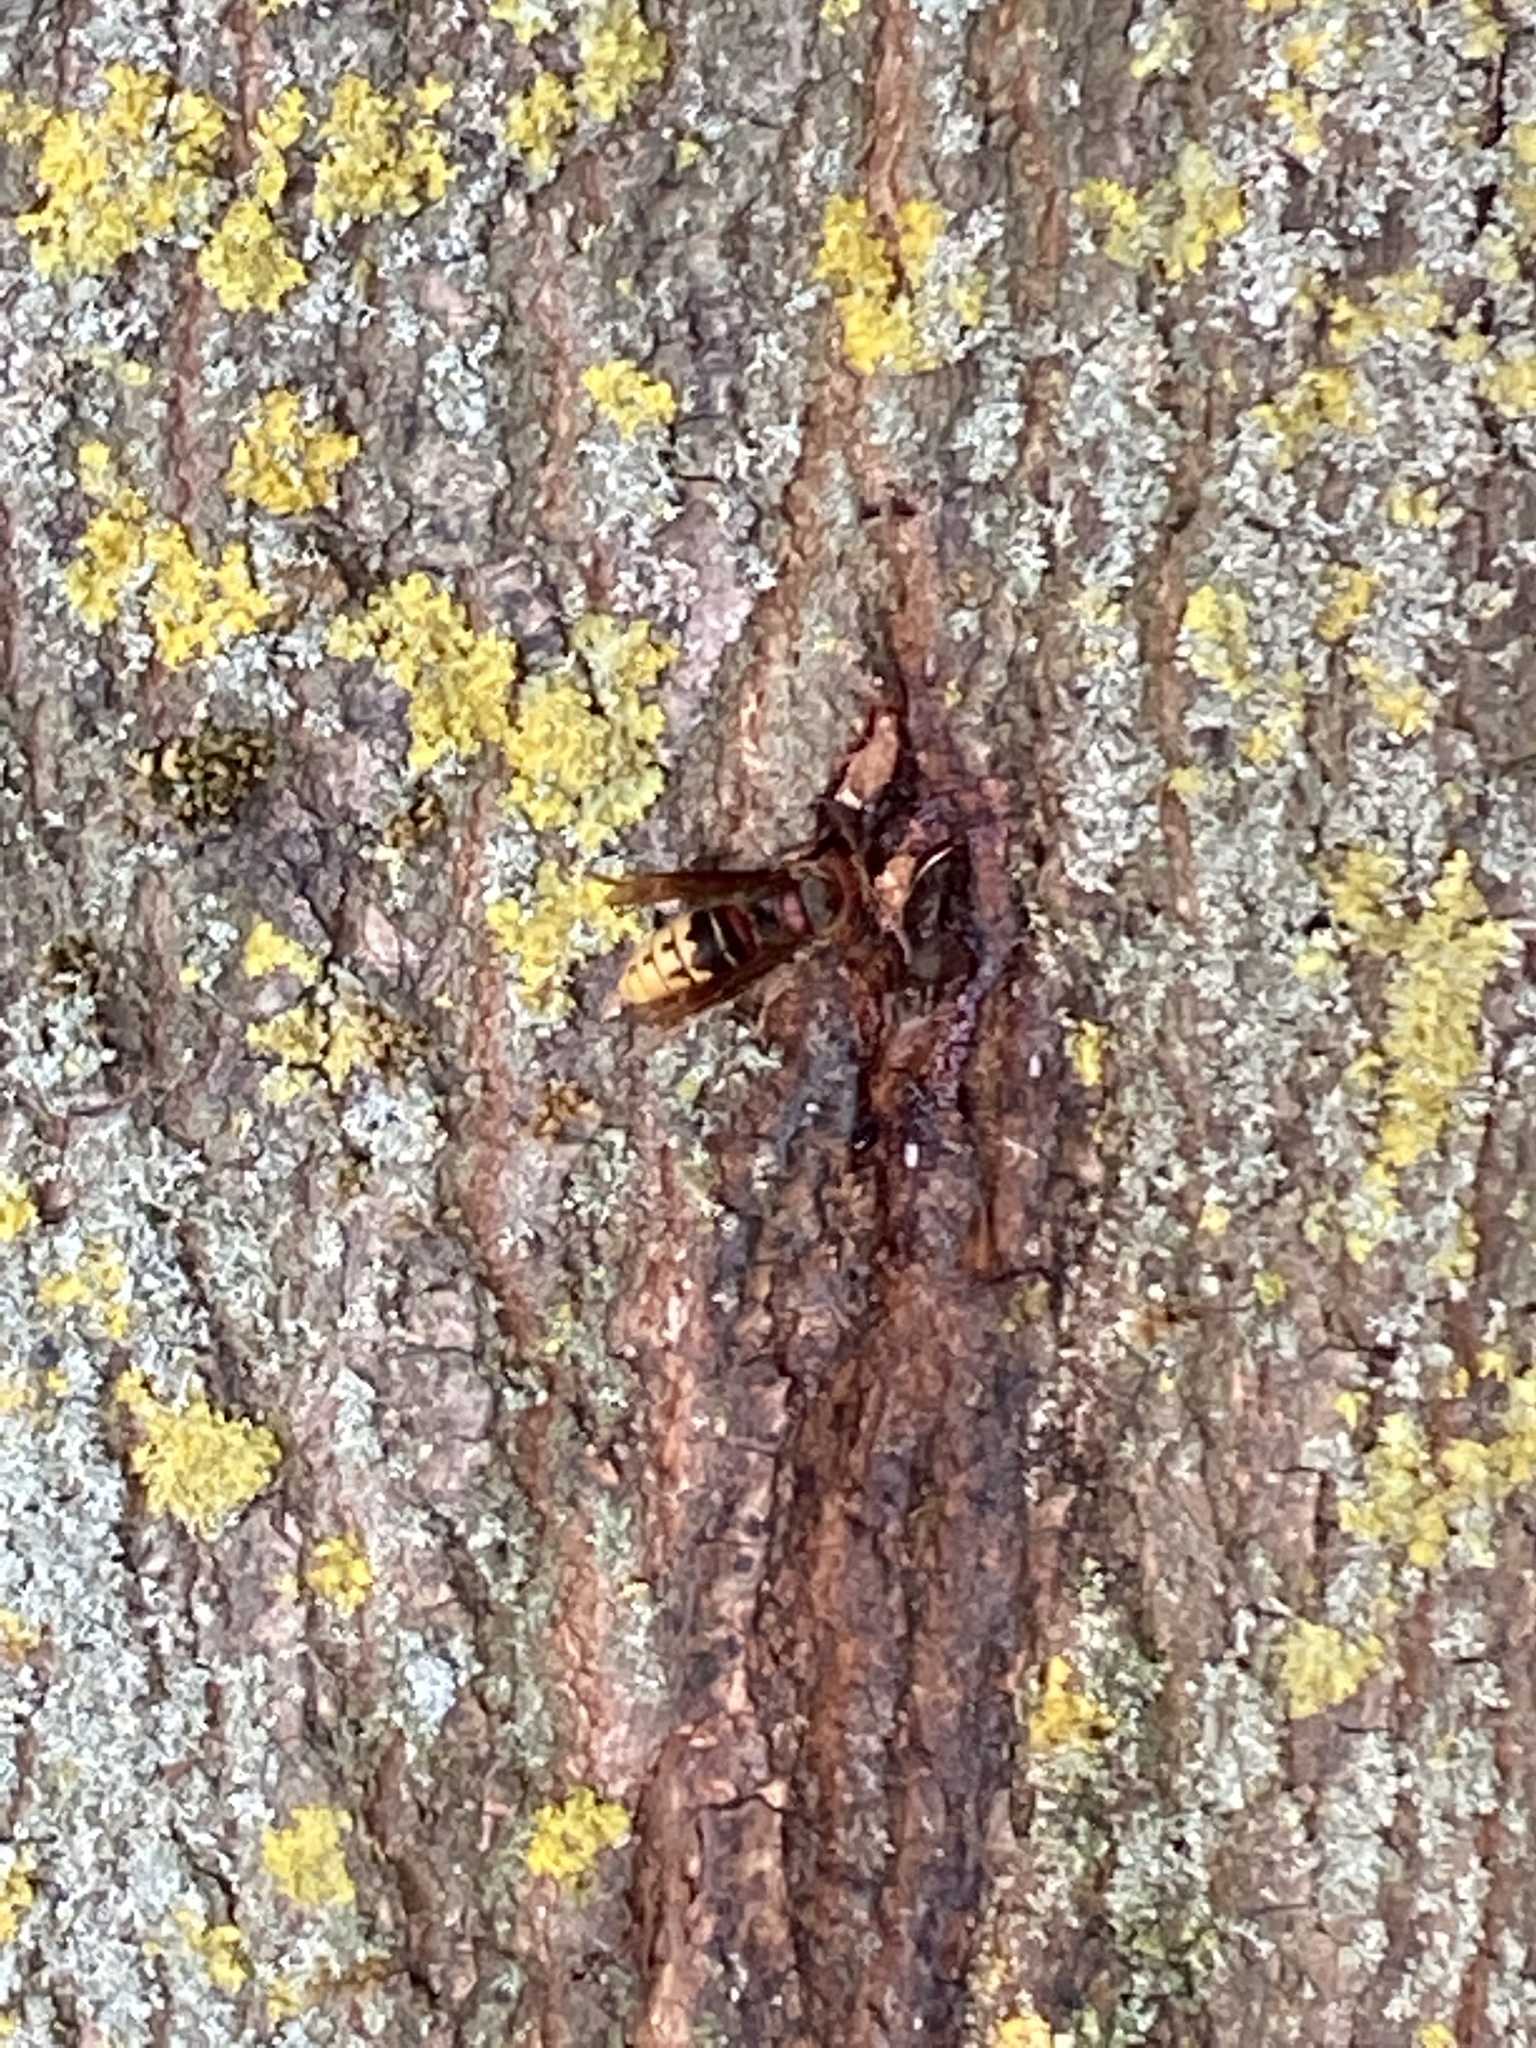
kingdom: Animalia
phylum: Arthropoda
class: Insecta
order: Hymenoptera
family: Vespidae
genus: Vespa
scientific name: Vespa crabro
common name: Hornet
